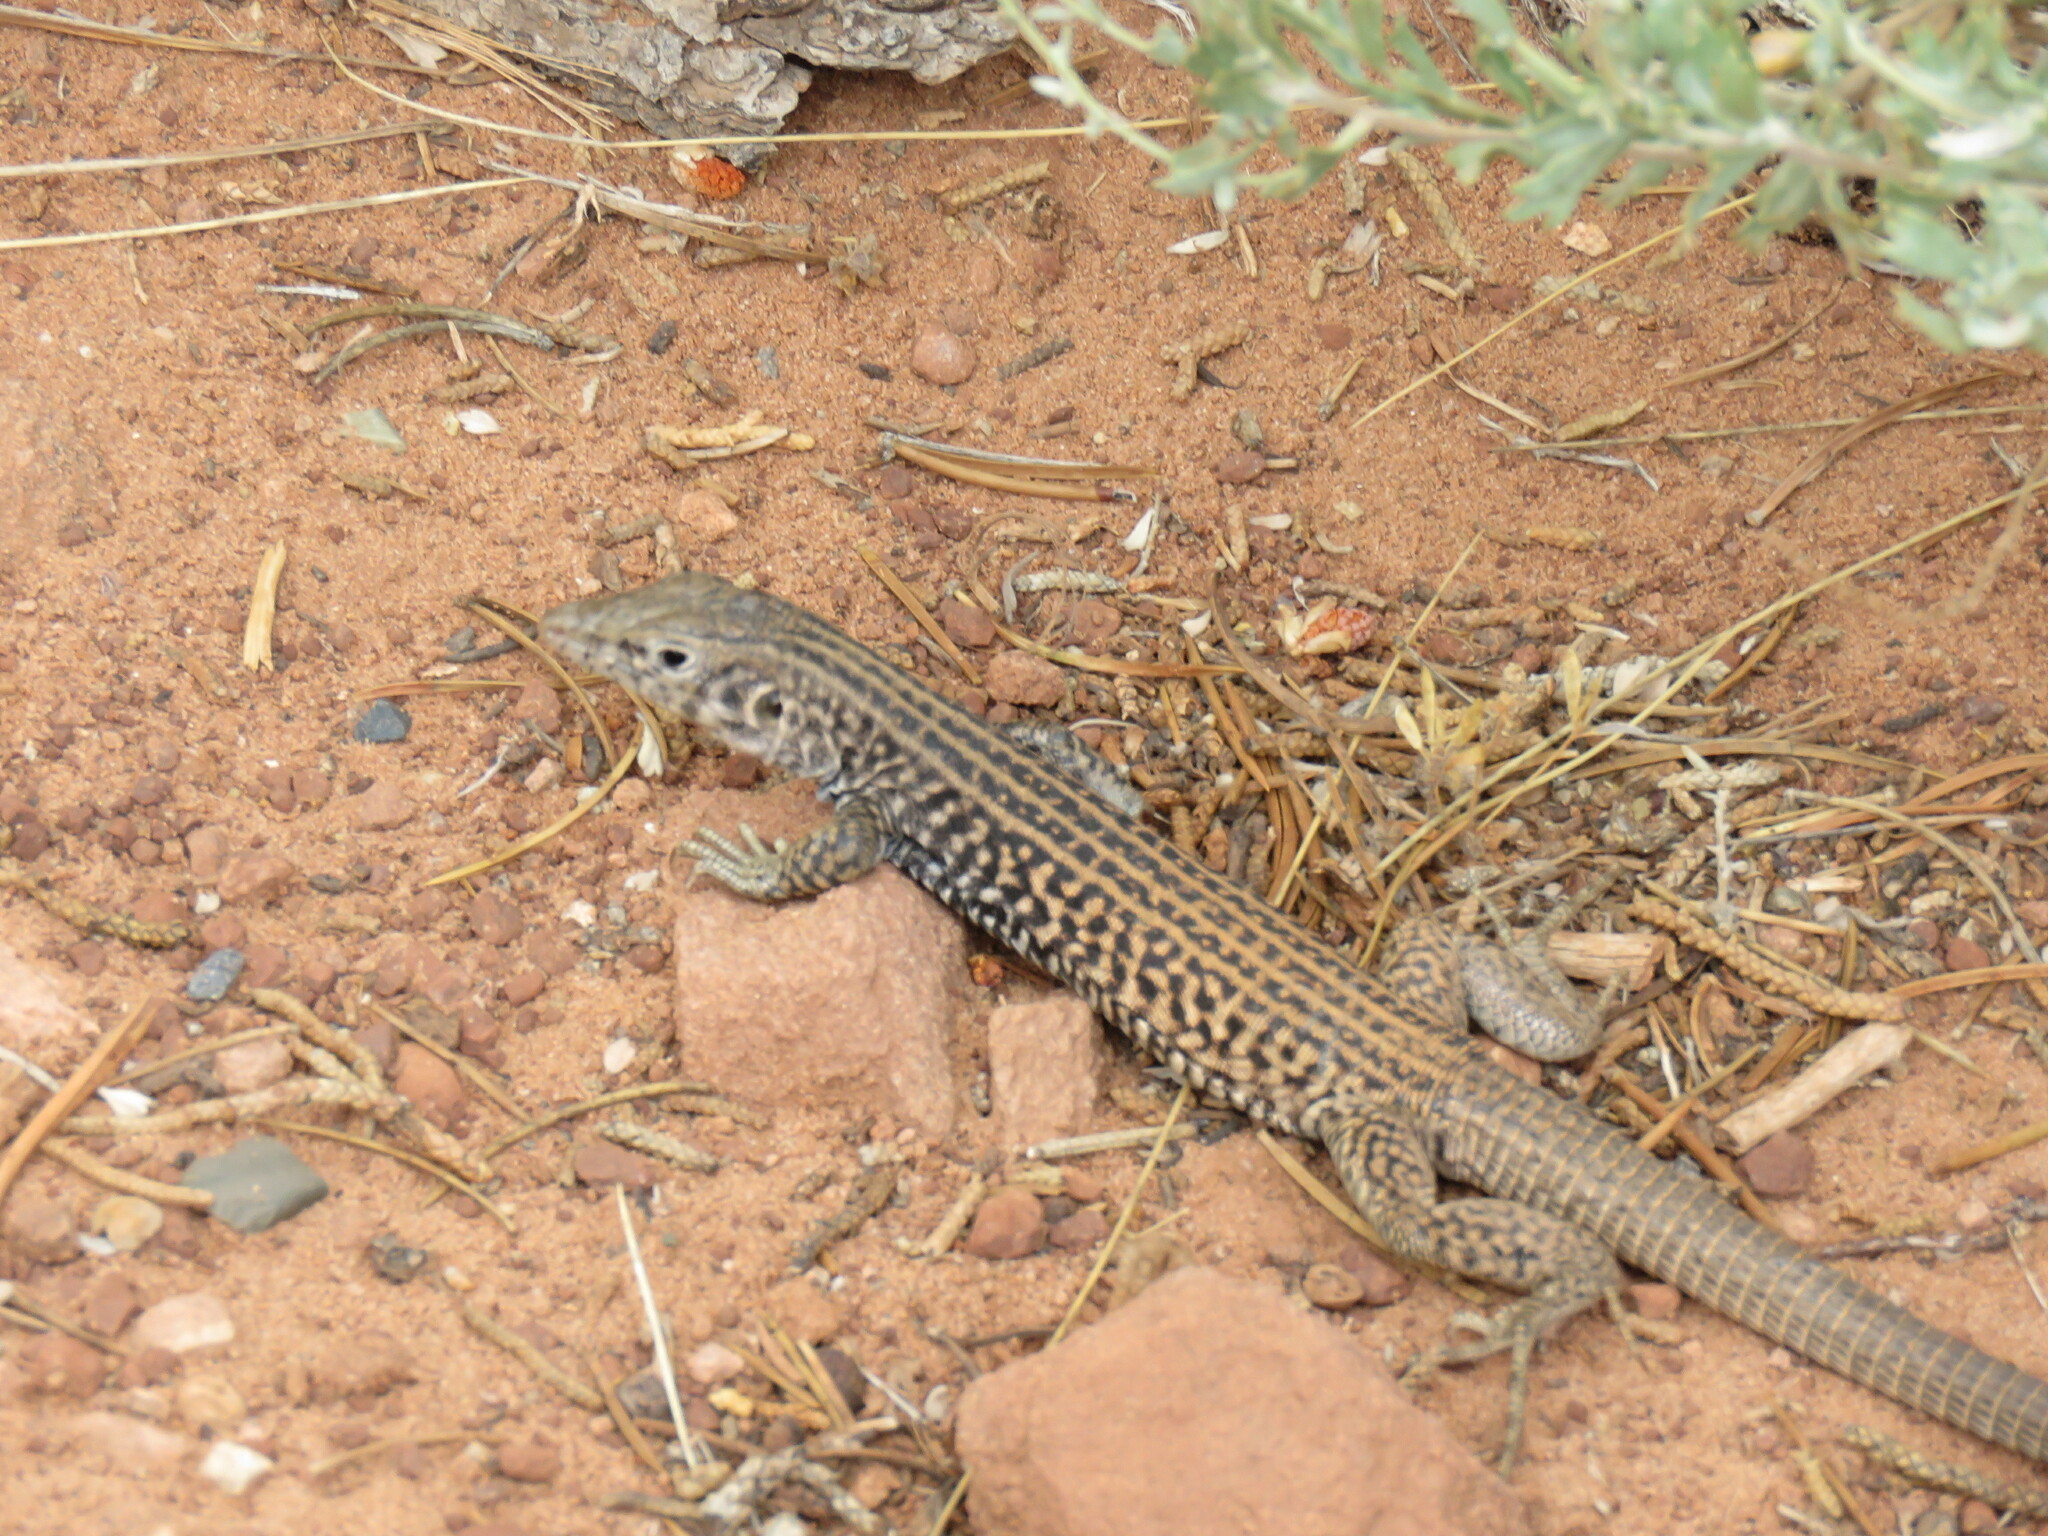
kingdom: Animalia
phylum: Chordata
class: Squamata
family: Teiidae
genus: Aspidoscelis
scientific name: Aspidoscelis tigris
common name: Tiger whiptail
